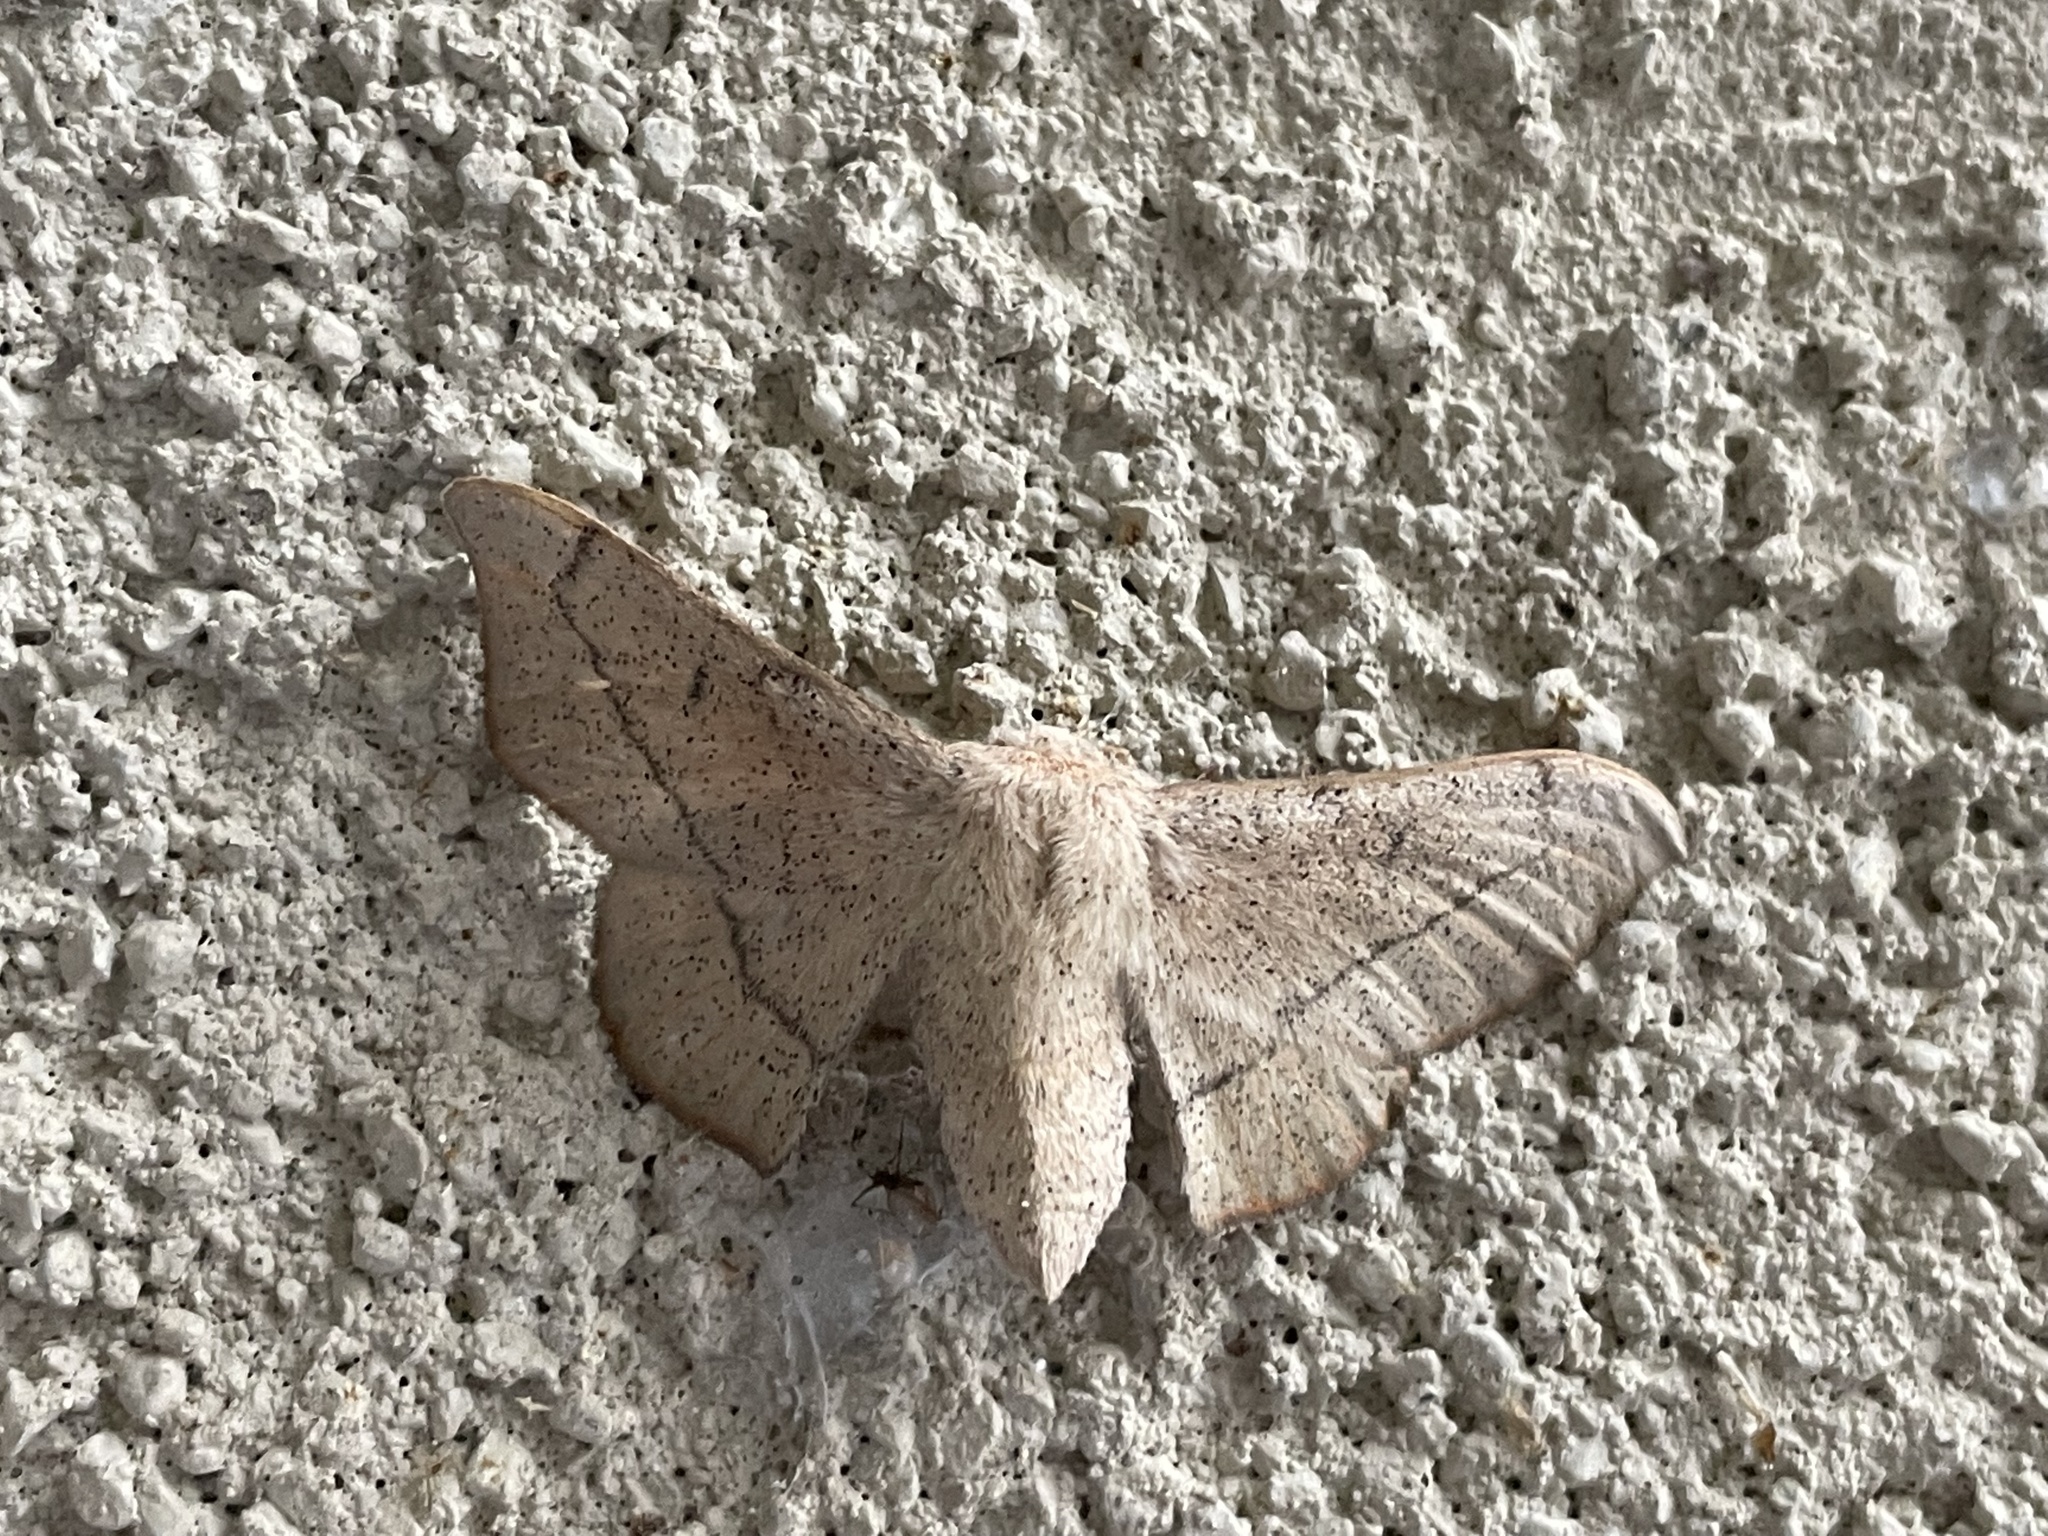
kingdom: Animalia
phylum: Arthropoda
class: Insecta
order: Lepidoptera
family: Mimallonidae
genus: Cicinnus
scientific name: Cicinnus melsheimeri
